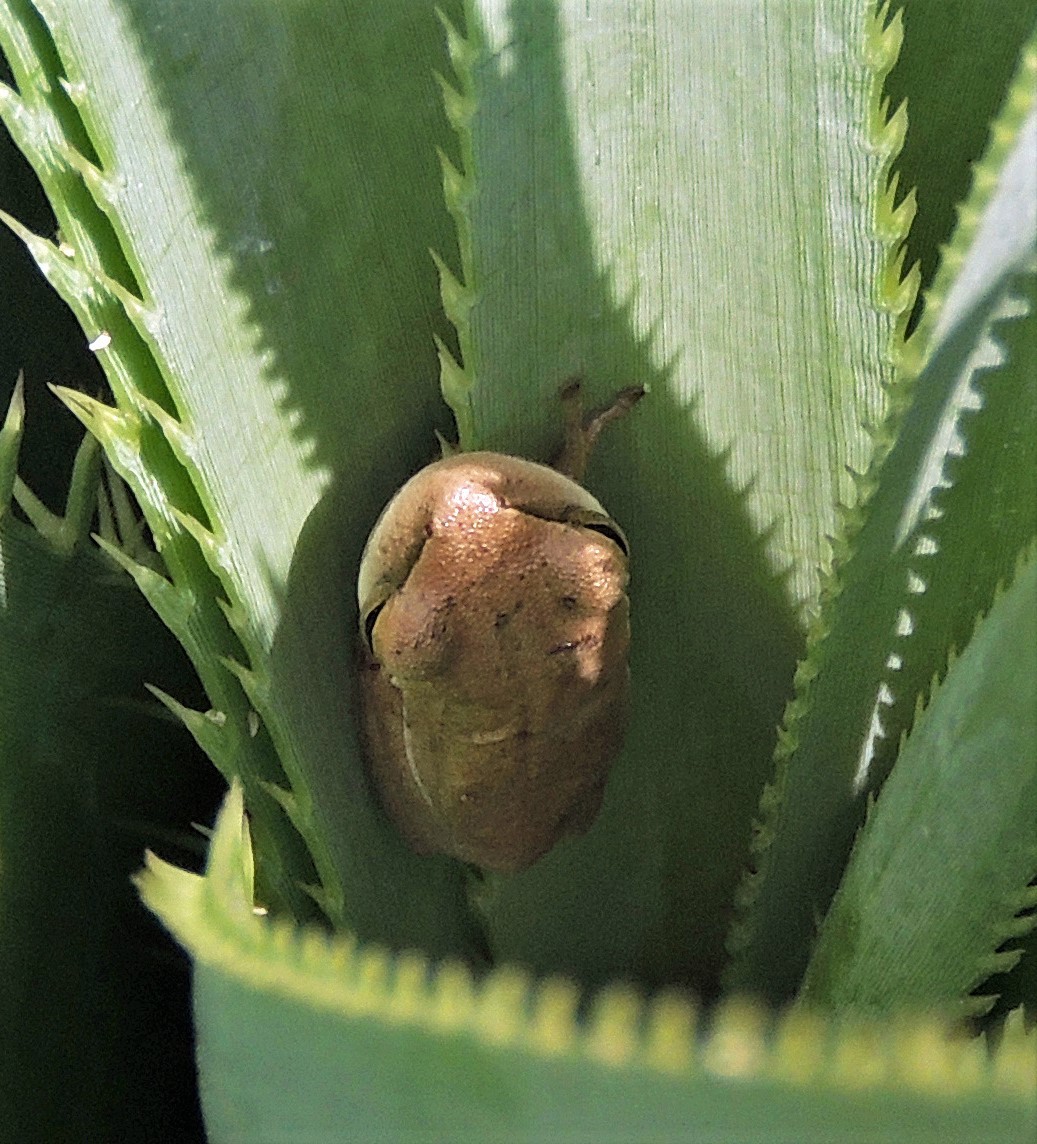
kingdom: Animalia
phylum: Chordata
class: Amphibia
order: Anura
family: Hylidae
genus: Boana
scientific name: Boana pulchella
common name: Montevideo treefrog
